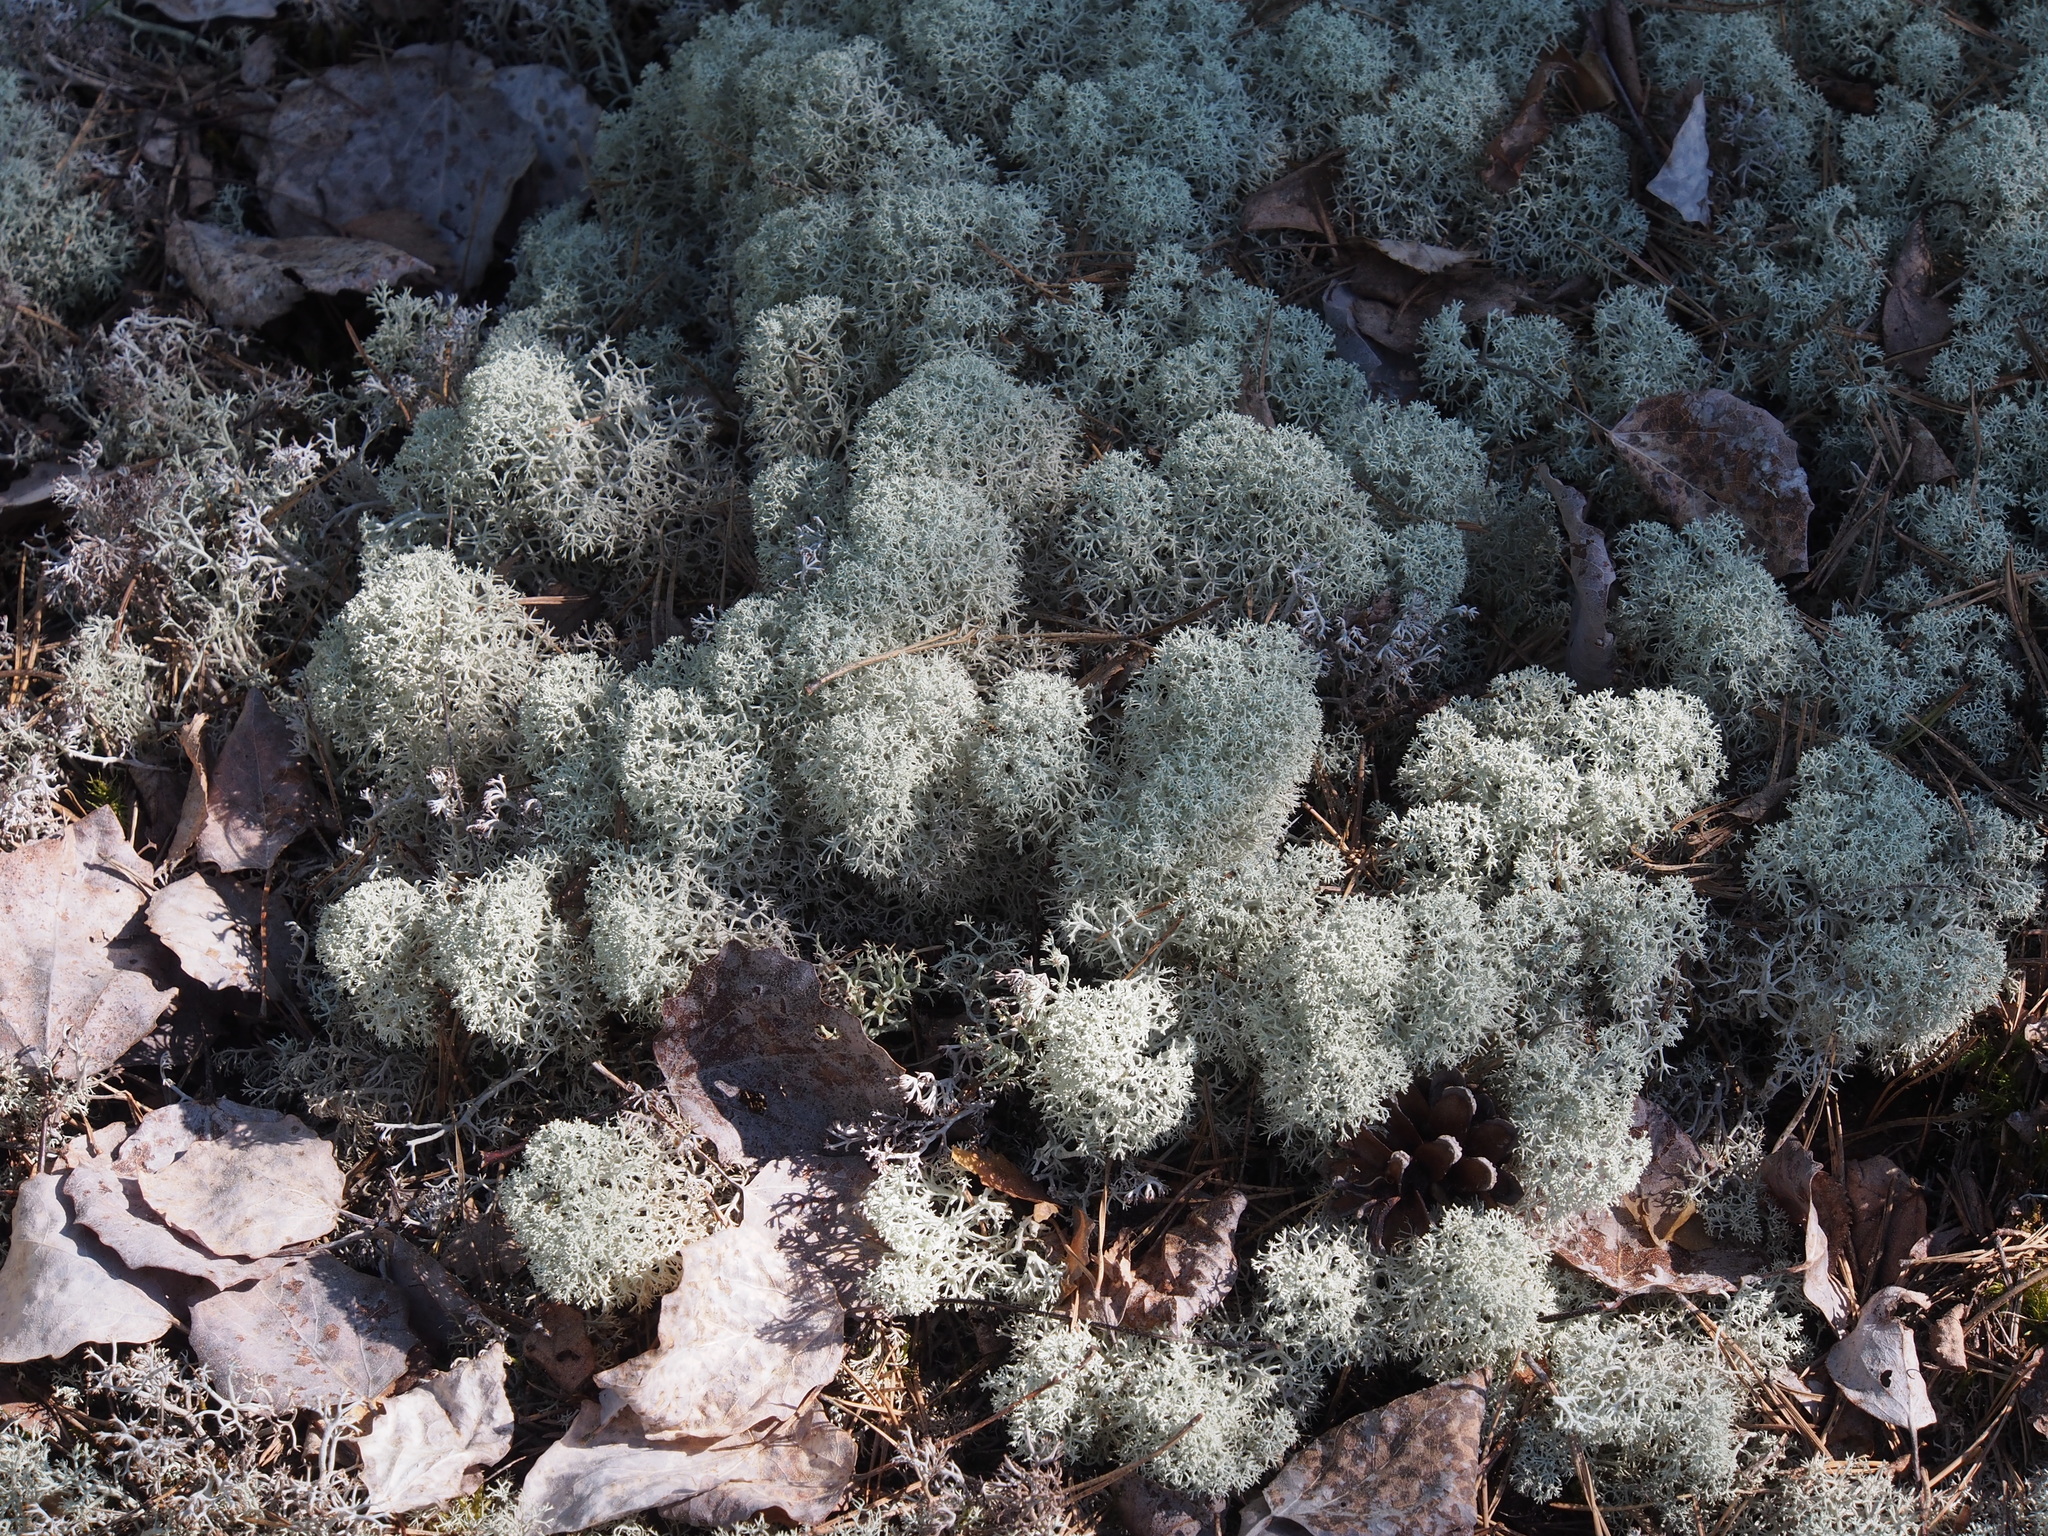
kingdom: Fungi
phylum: Ascomycota
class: Lecanoromycetes
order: Lecanorales
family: Cladoniaceae
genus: Cladonia
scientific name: Cladonia stellaris
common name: Star-tipped reindeer lichen
